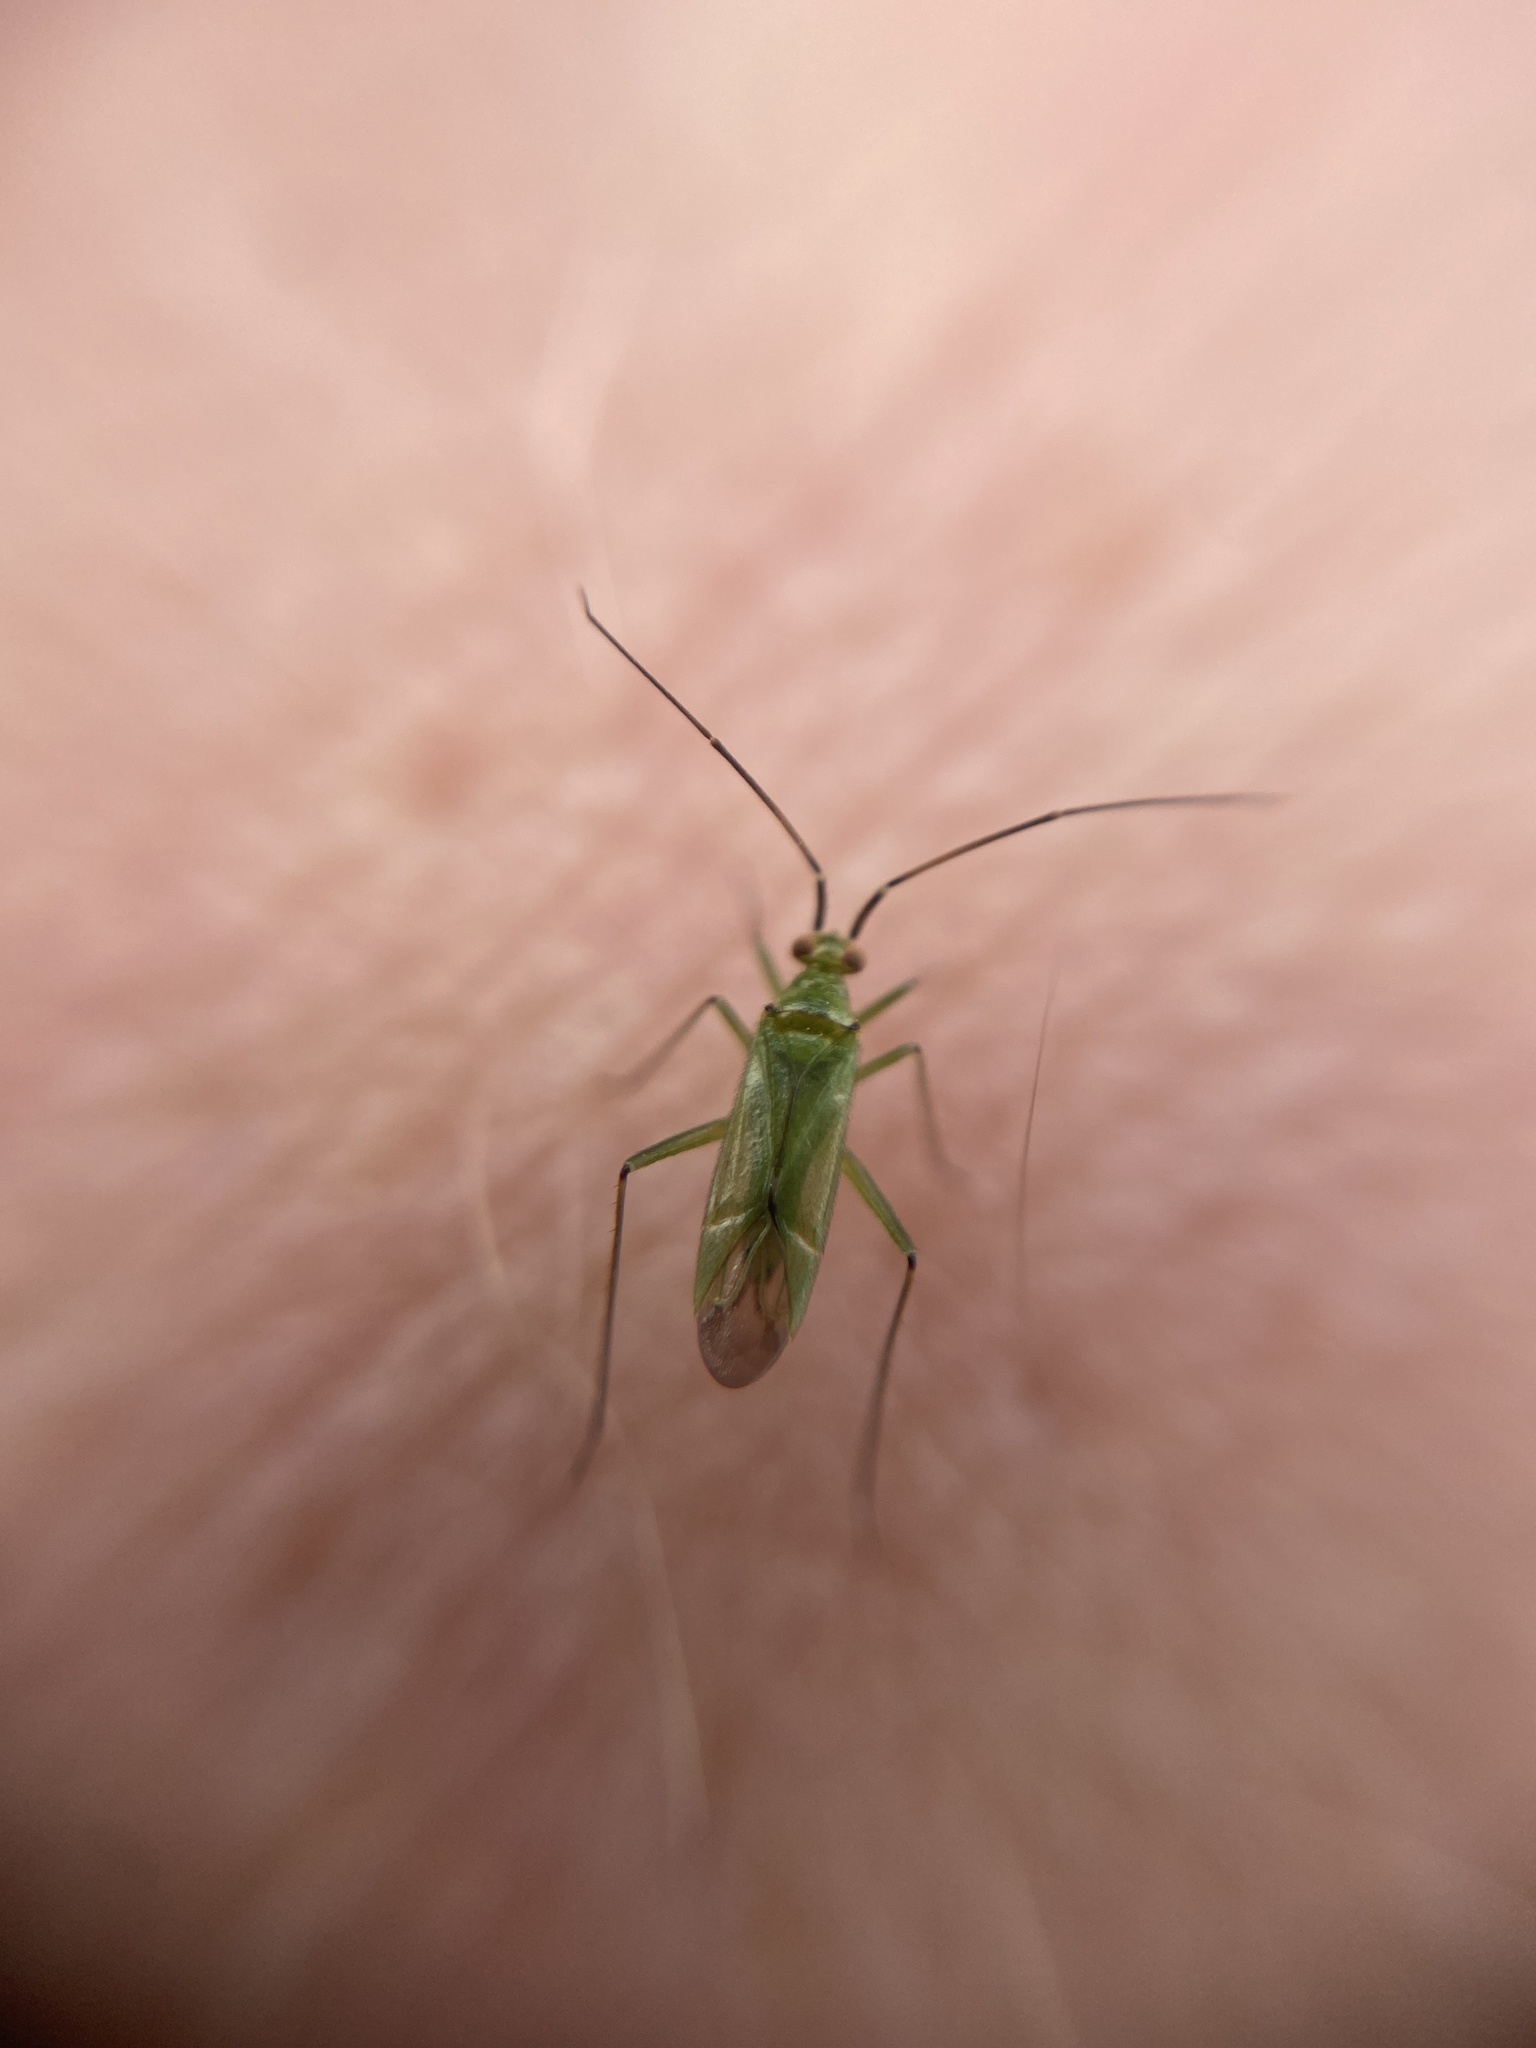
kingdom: Animalia
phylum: Arthropoda
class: Insecta
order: Hemiptera
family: Miridae
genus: Blepharidopterus
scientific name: Blepharidopterus angulatus
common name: Plant bug
